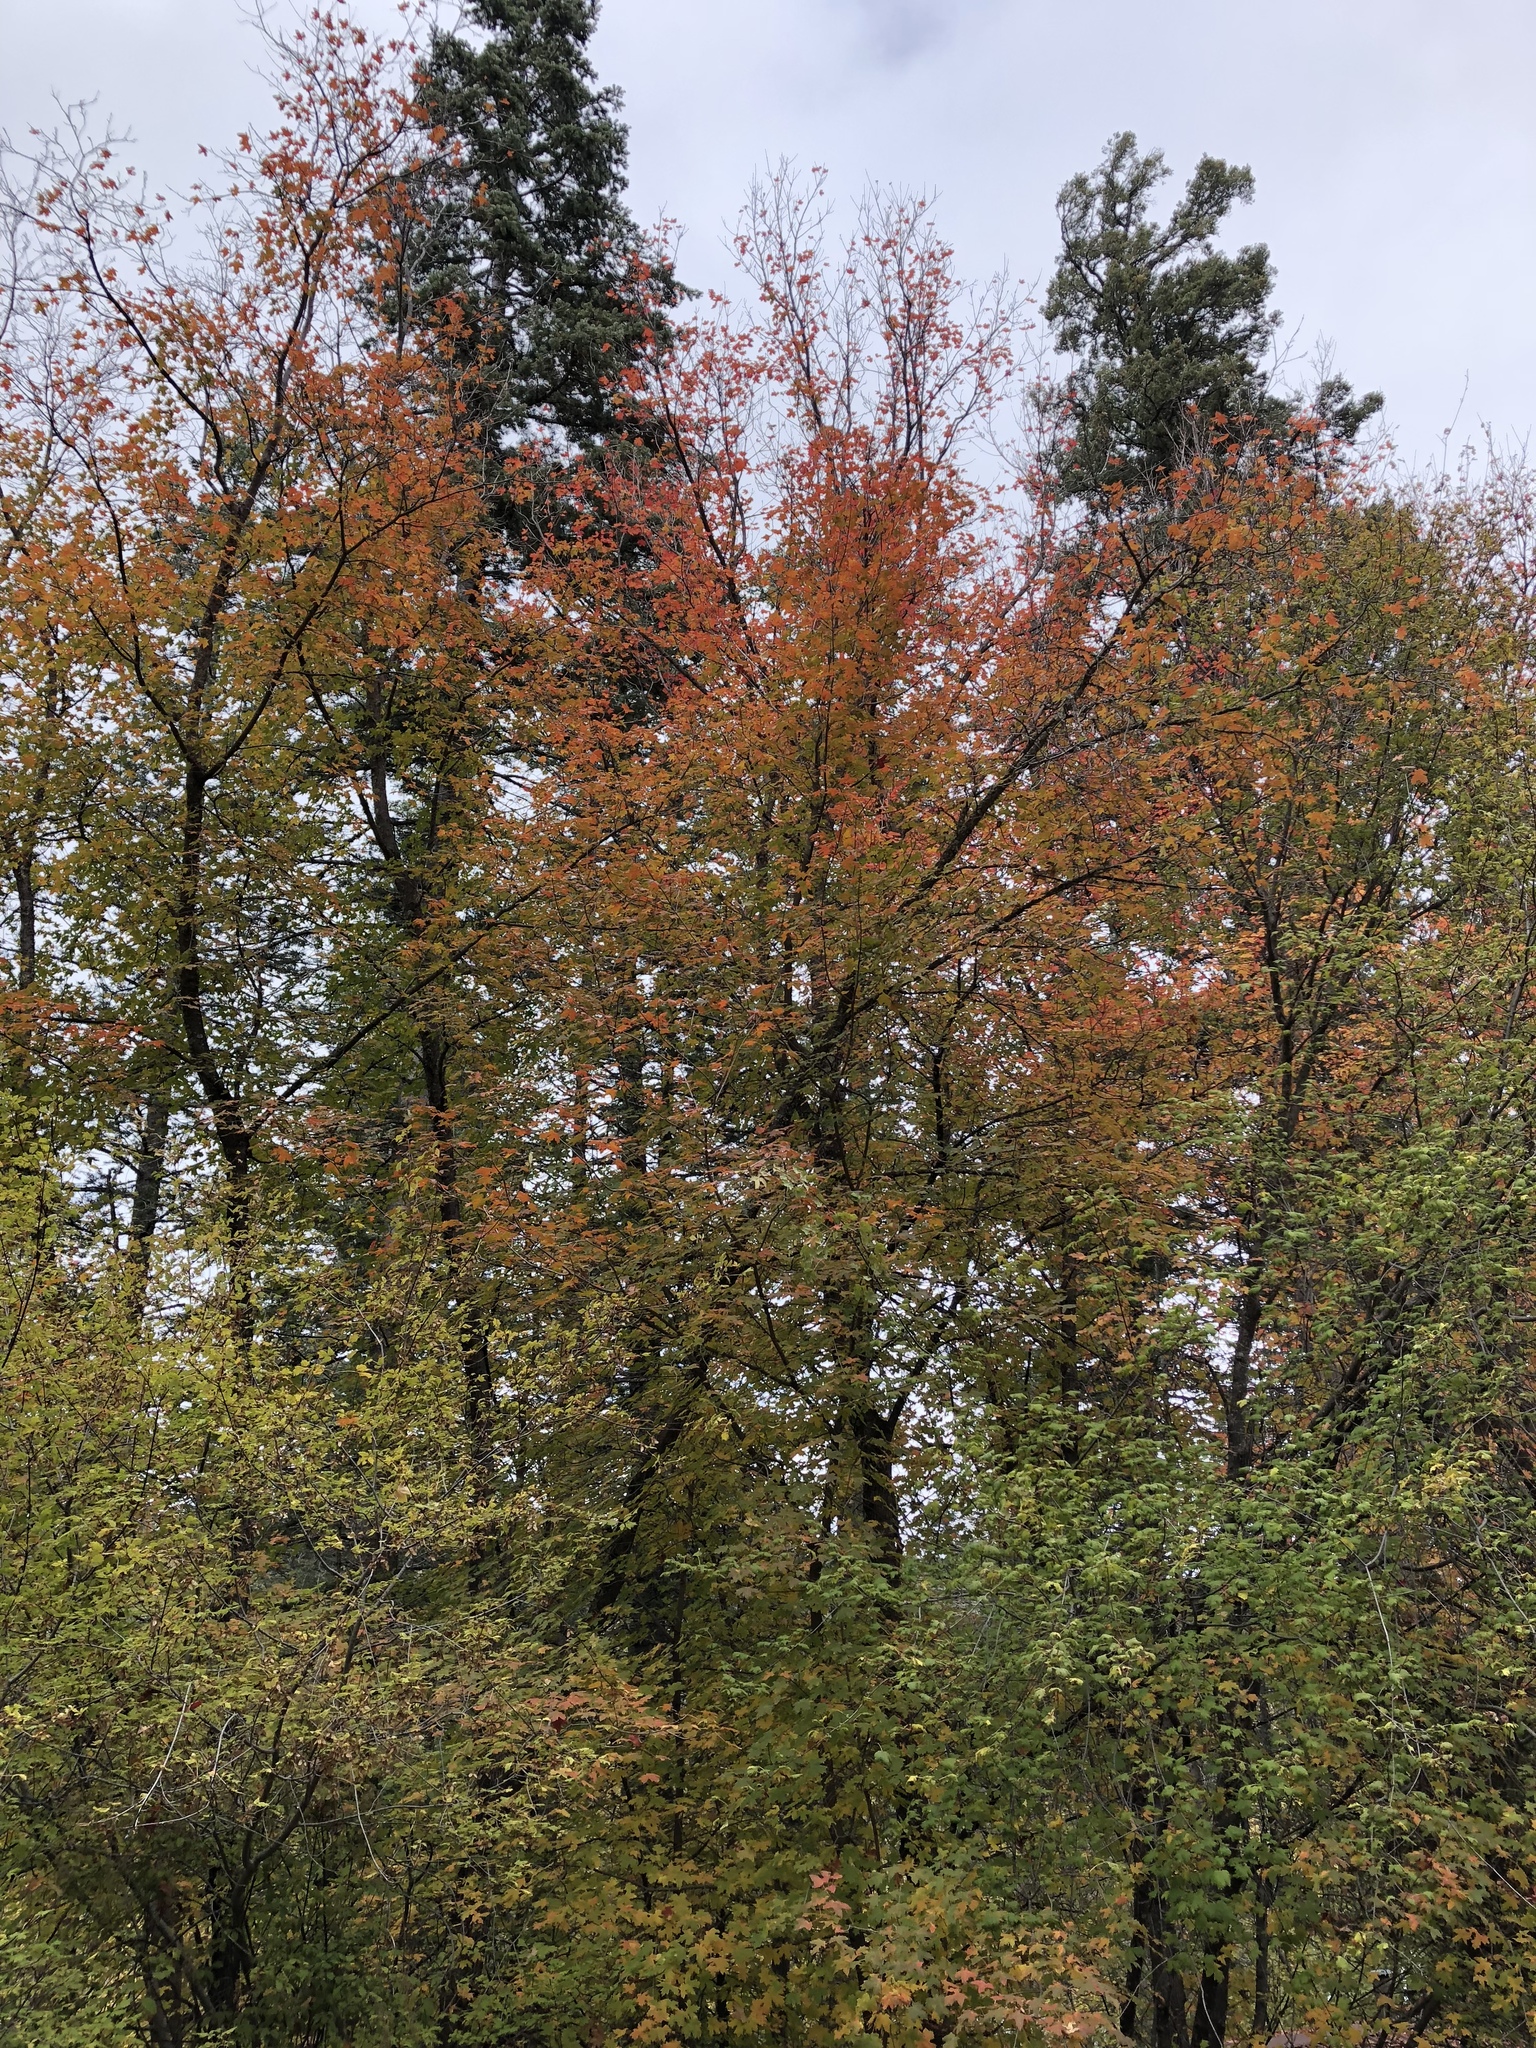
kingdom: Plantae
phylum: Tracheophyta
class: Magnoliopsida
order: Sapindales
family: Sapindaceae
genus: Acer
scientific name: Acer grandidentatum
